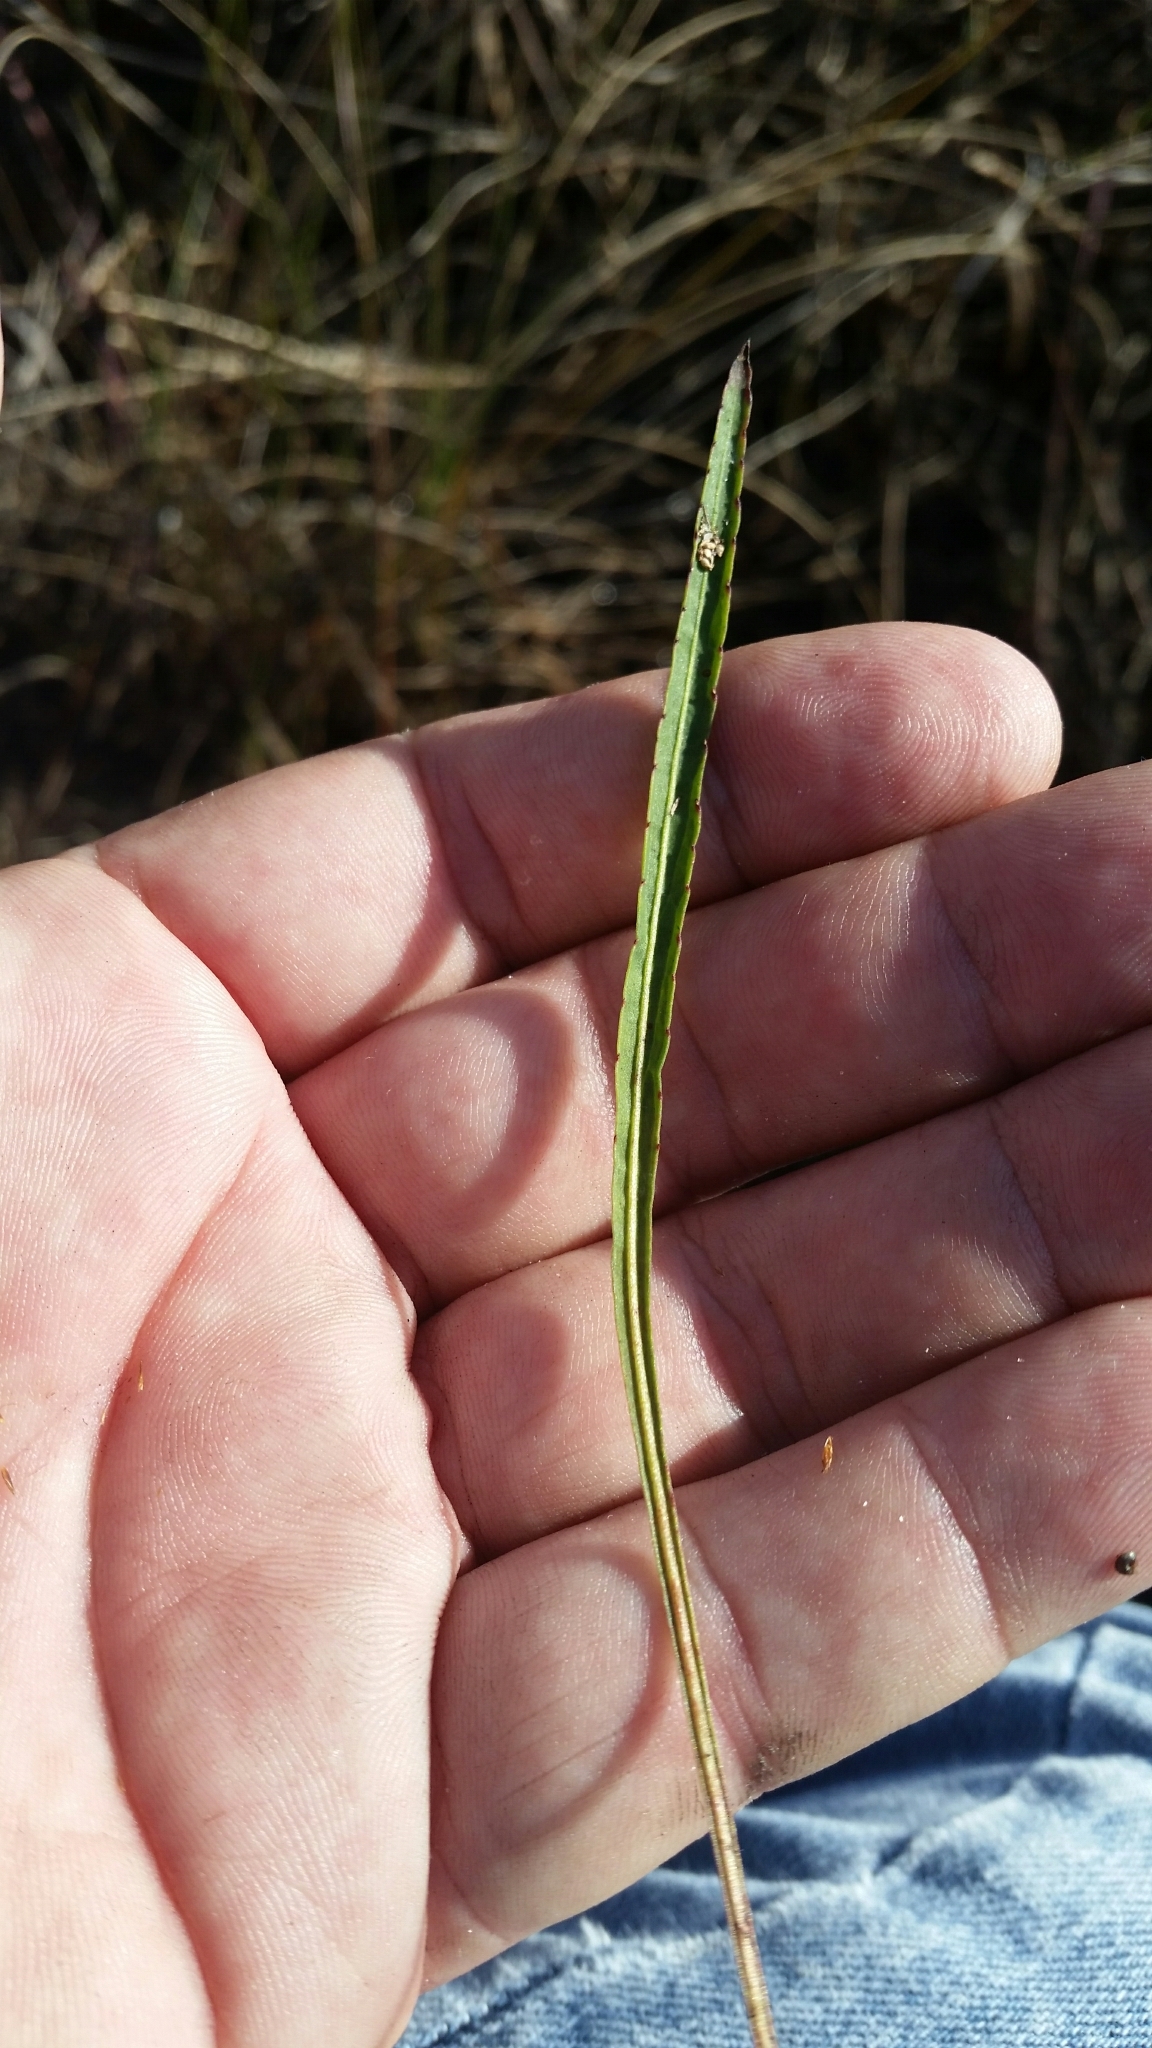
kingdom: Plantae
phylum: Tracheophyta
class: Magnoliopsida
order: Malpighiales
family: Violaceae
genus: Viola
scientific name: Viola vittata
